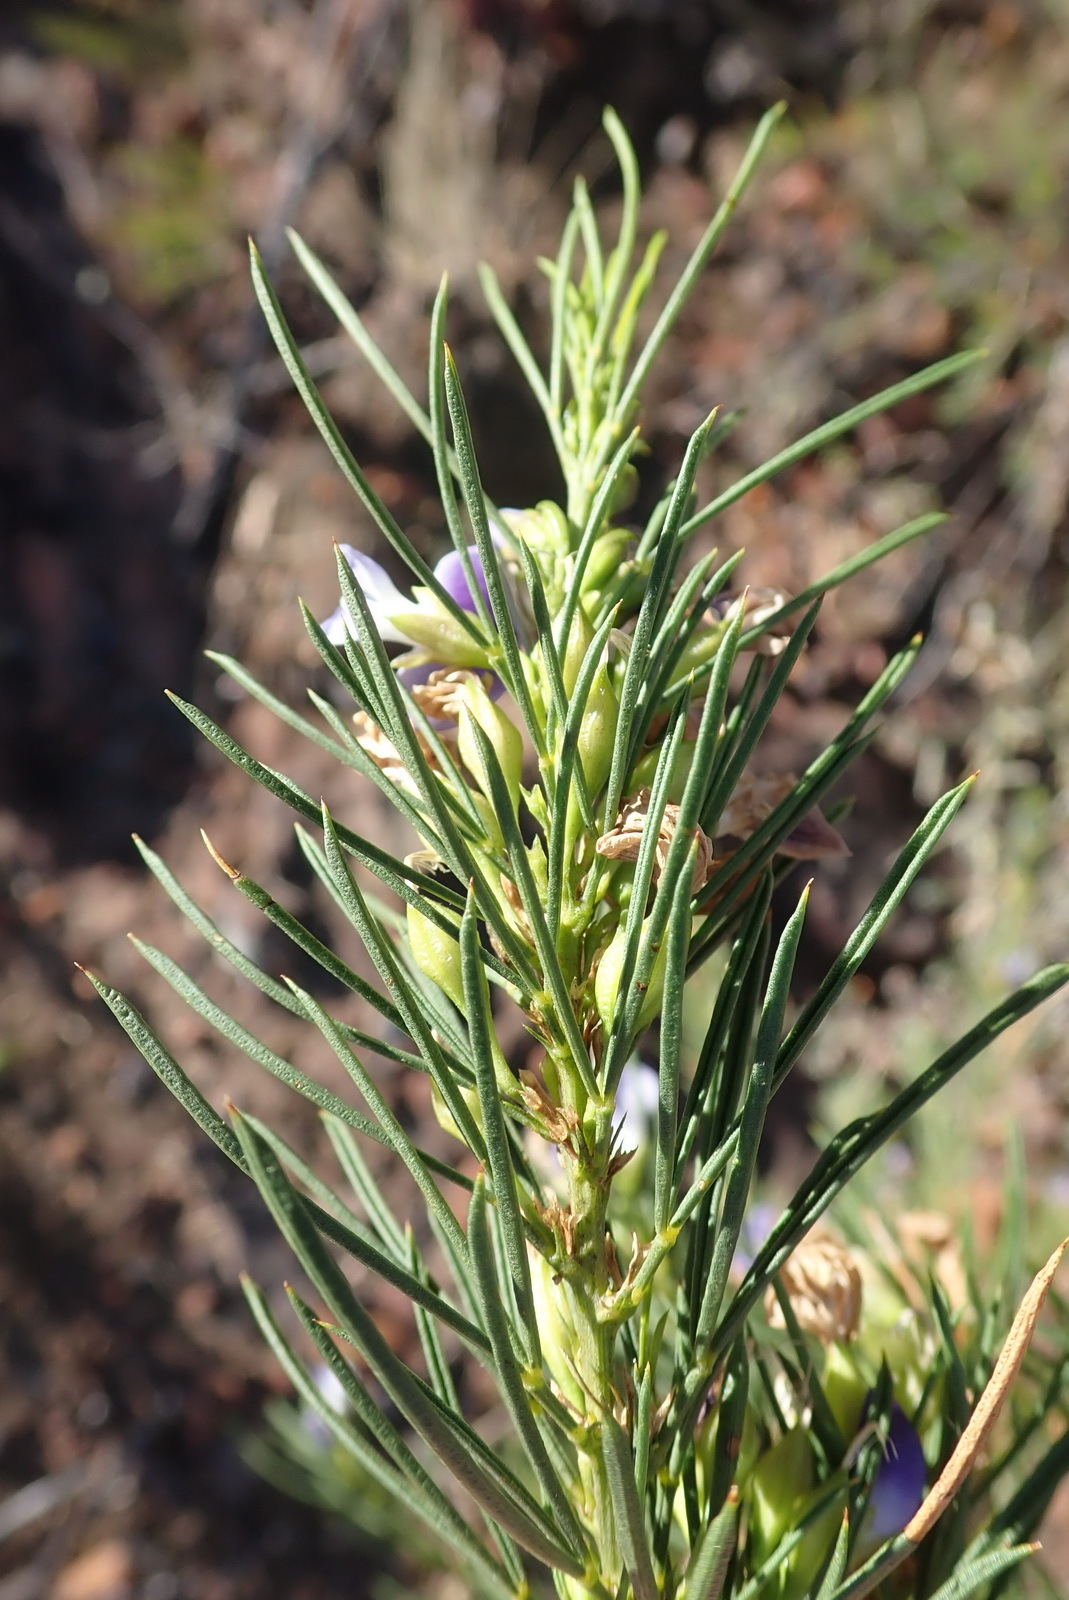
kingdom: Plantae
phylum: Tracheophyta
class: Magnoliopsida
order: Fabales
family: Fabaceae
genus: Psoralea
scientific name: Psoralea sordida
